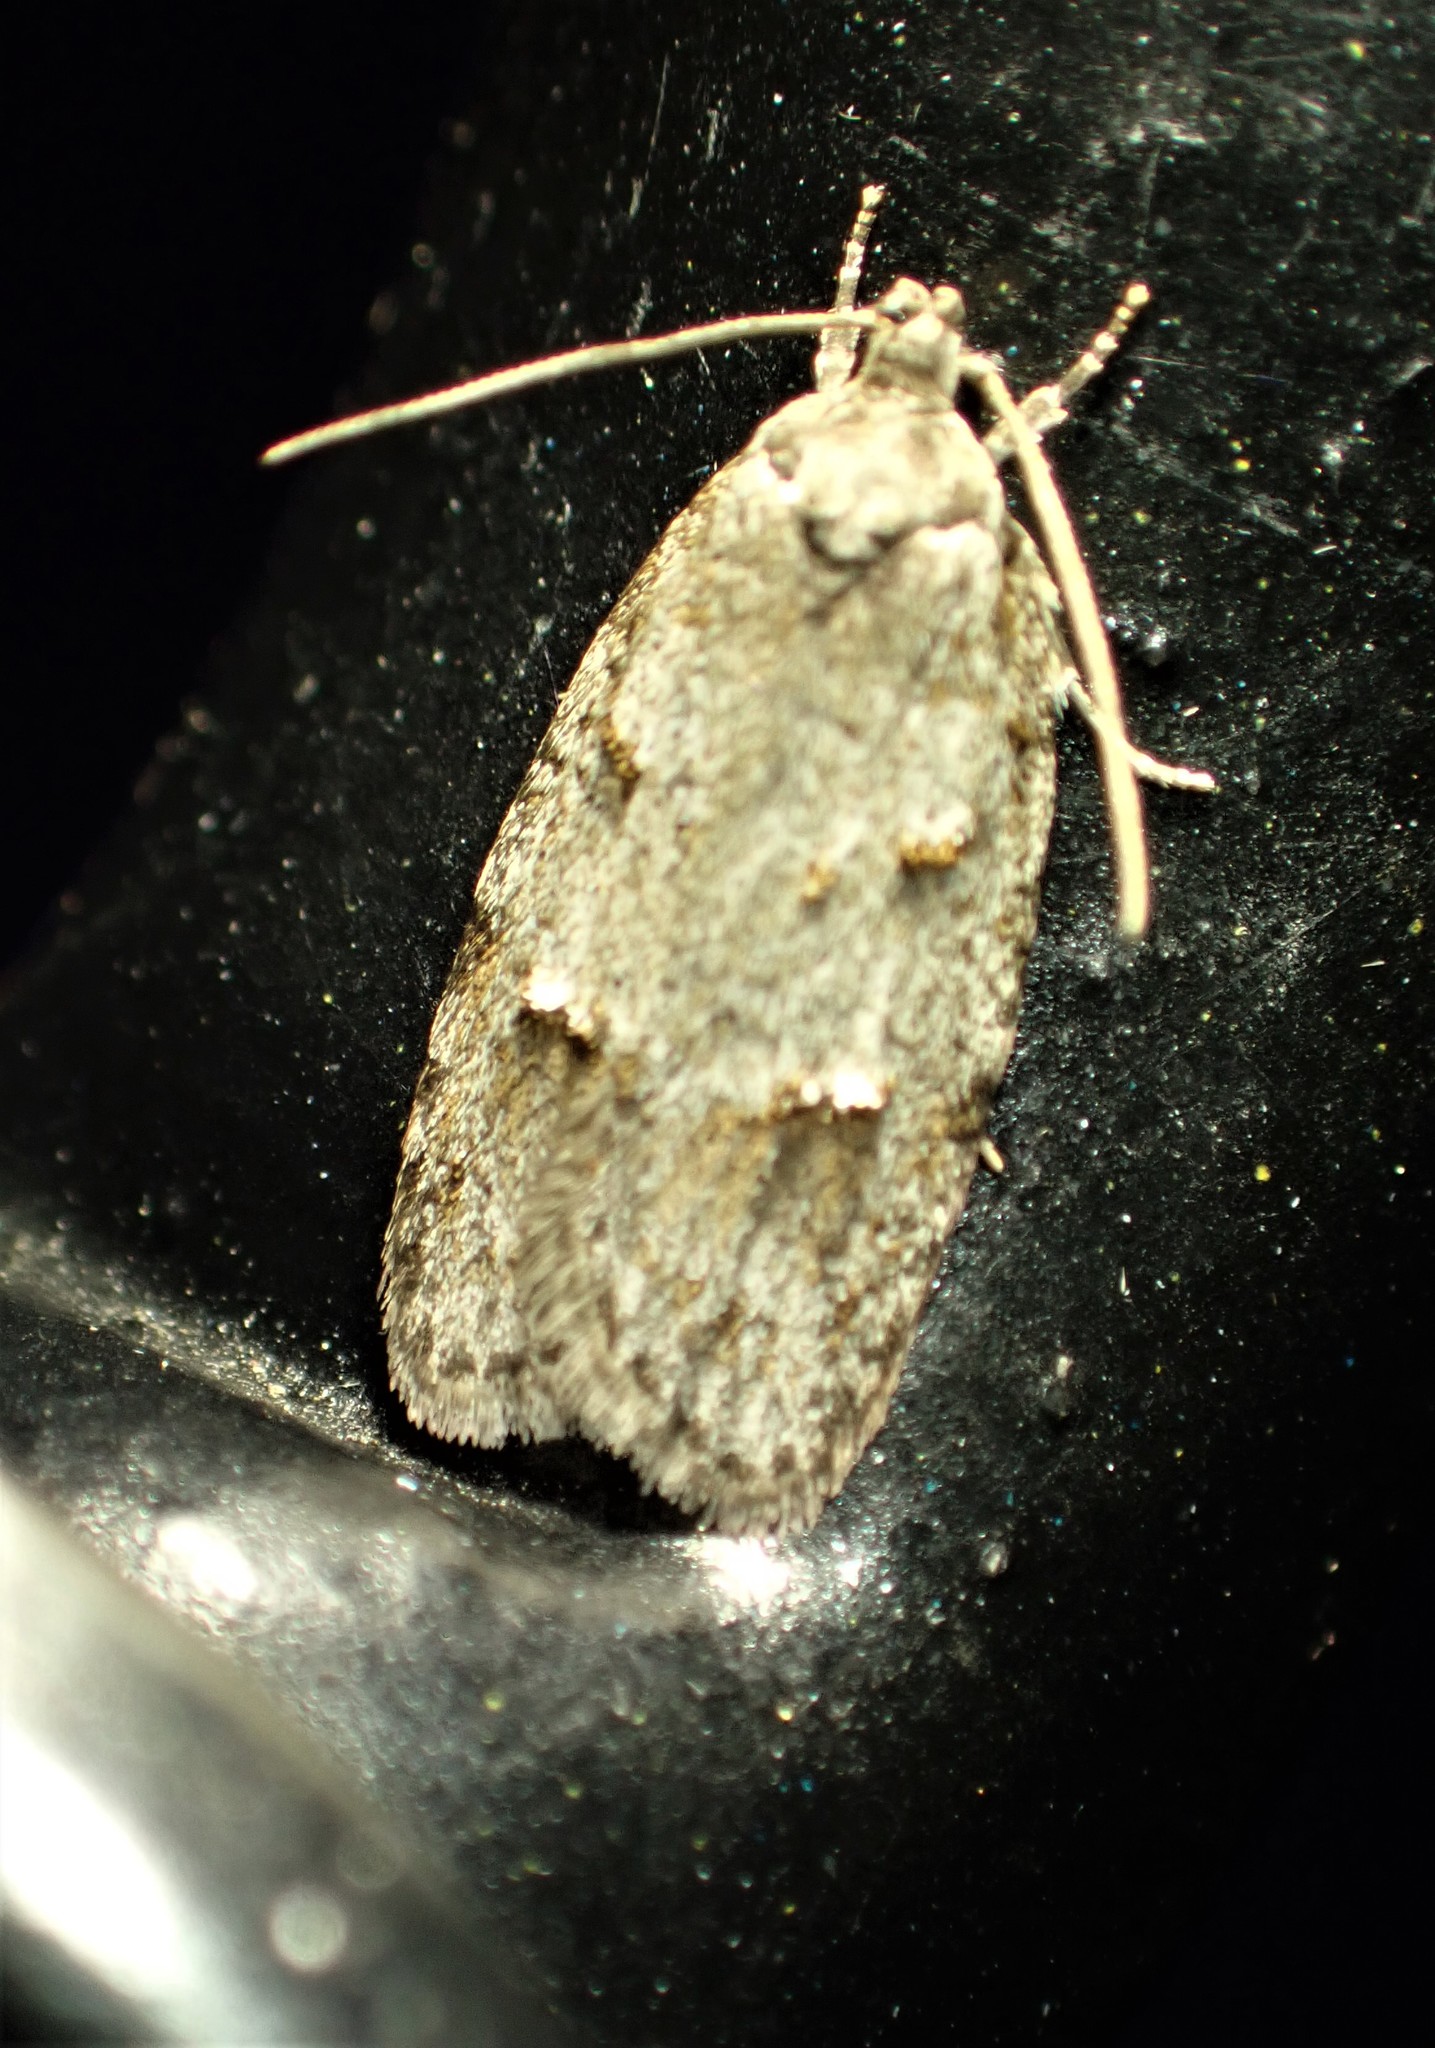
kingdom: Animalia
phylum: Arthropoda
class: Insecta
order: Lepidoptera
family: Tortricidae
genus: Acleris
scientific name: Acleris placidana
